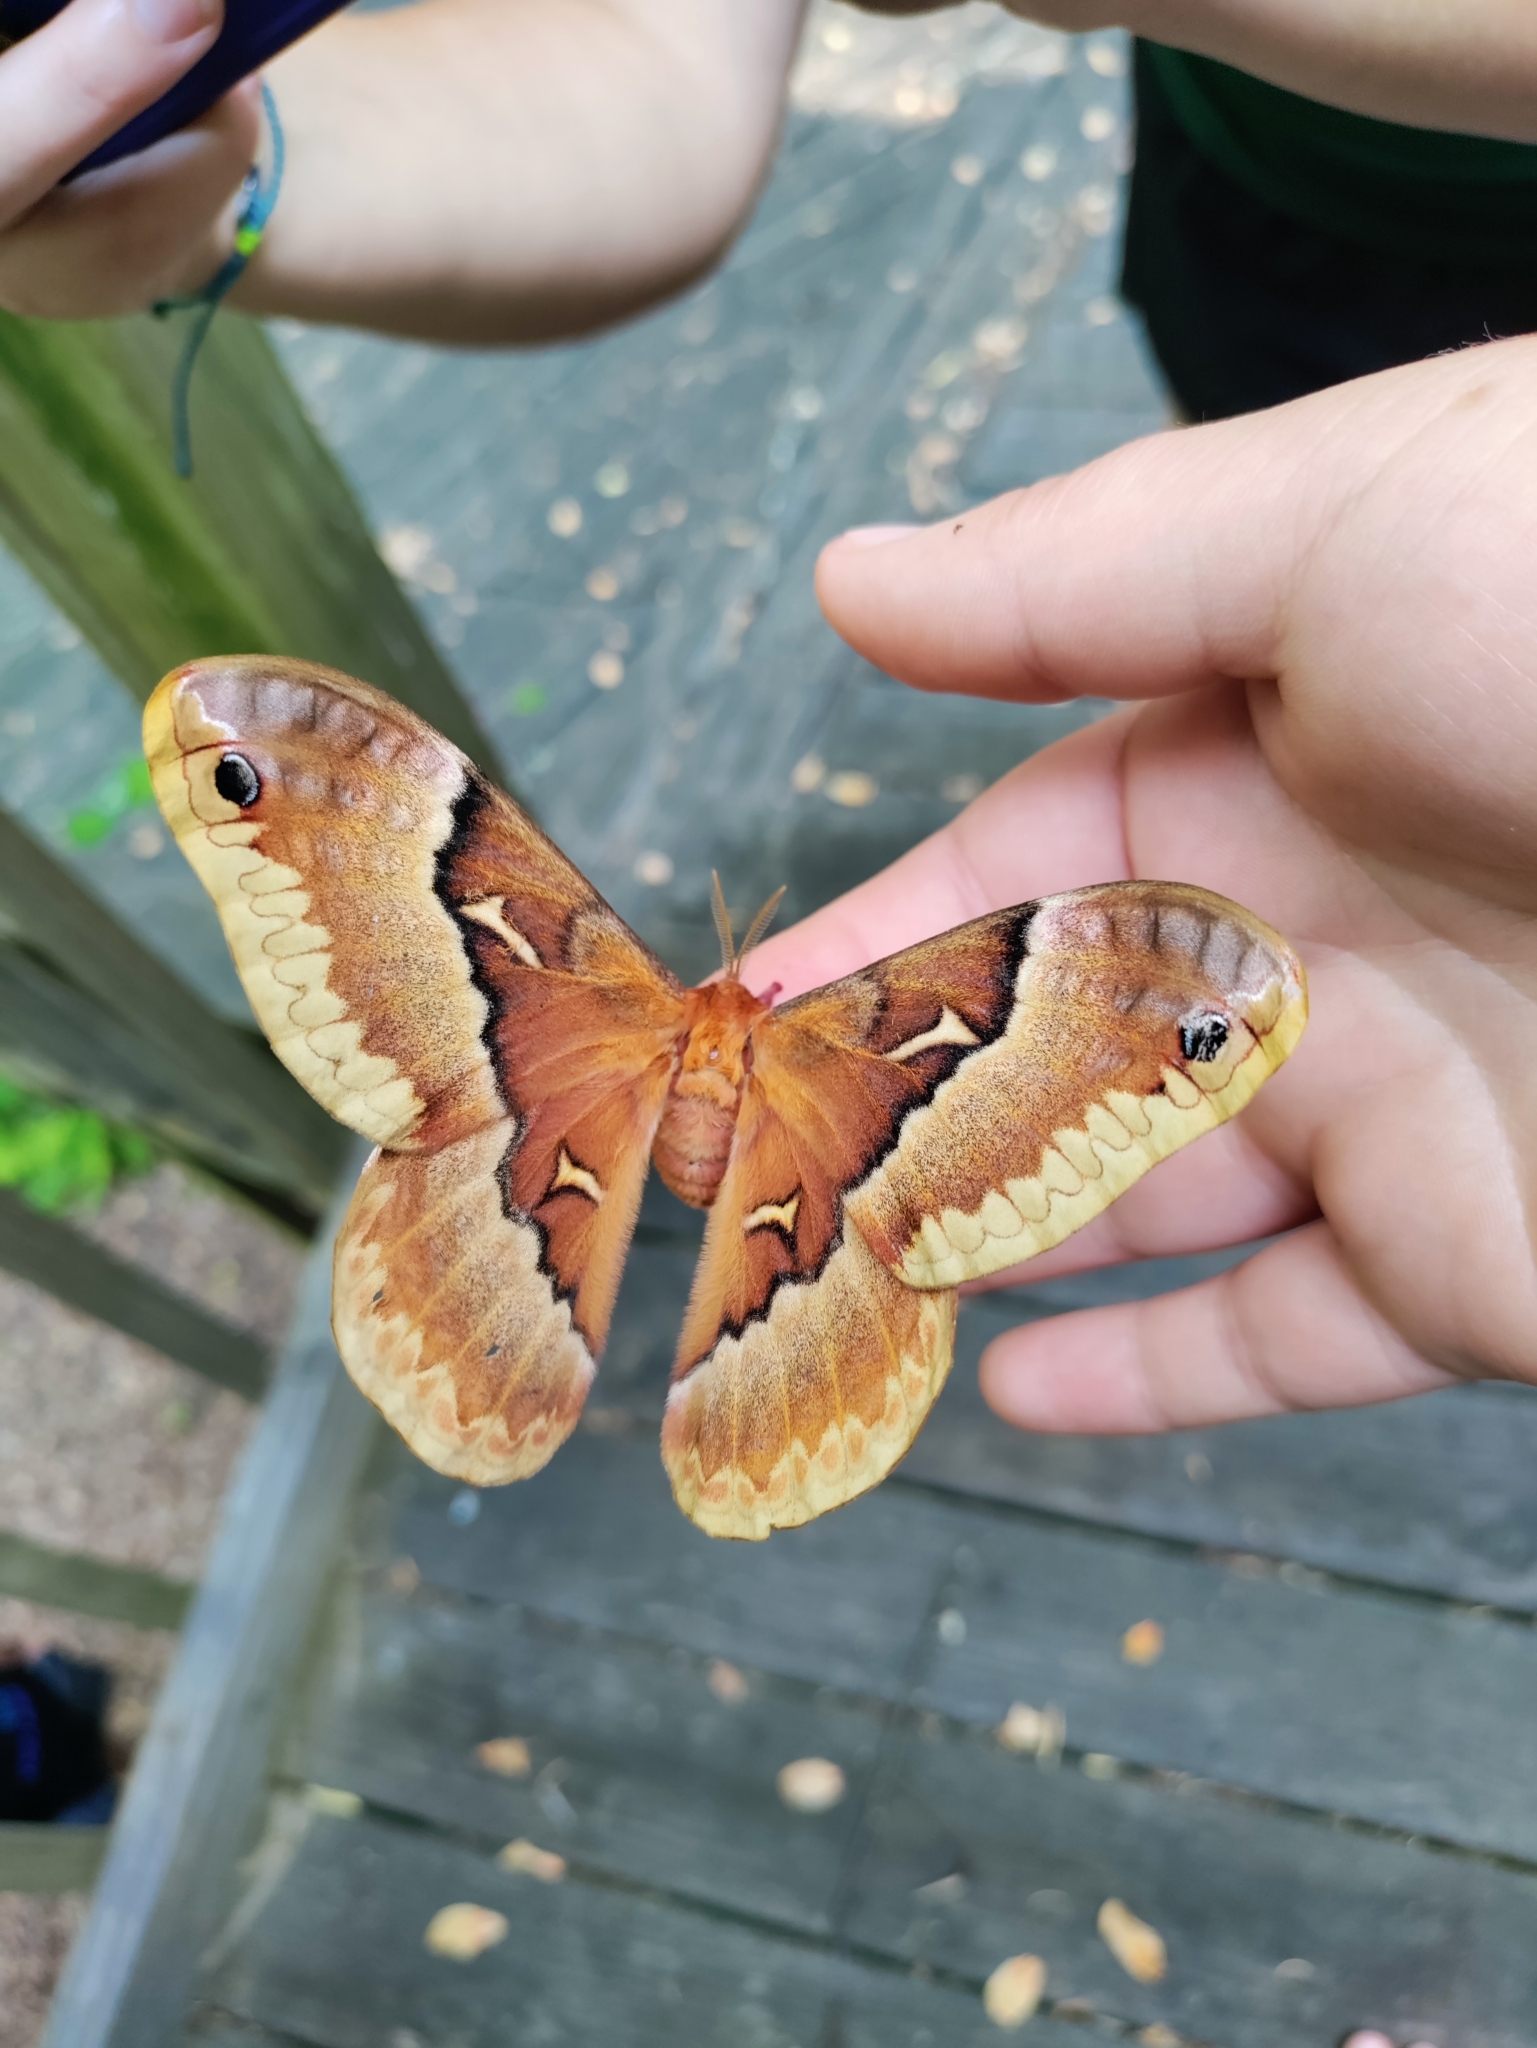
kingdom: Animalia
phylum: Arthropoda
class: Insecta
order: Lepidoptera
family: Saturniidae
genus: Callosamia
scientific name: Callosamia angulifera
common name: Tulip tree silkmoth
